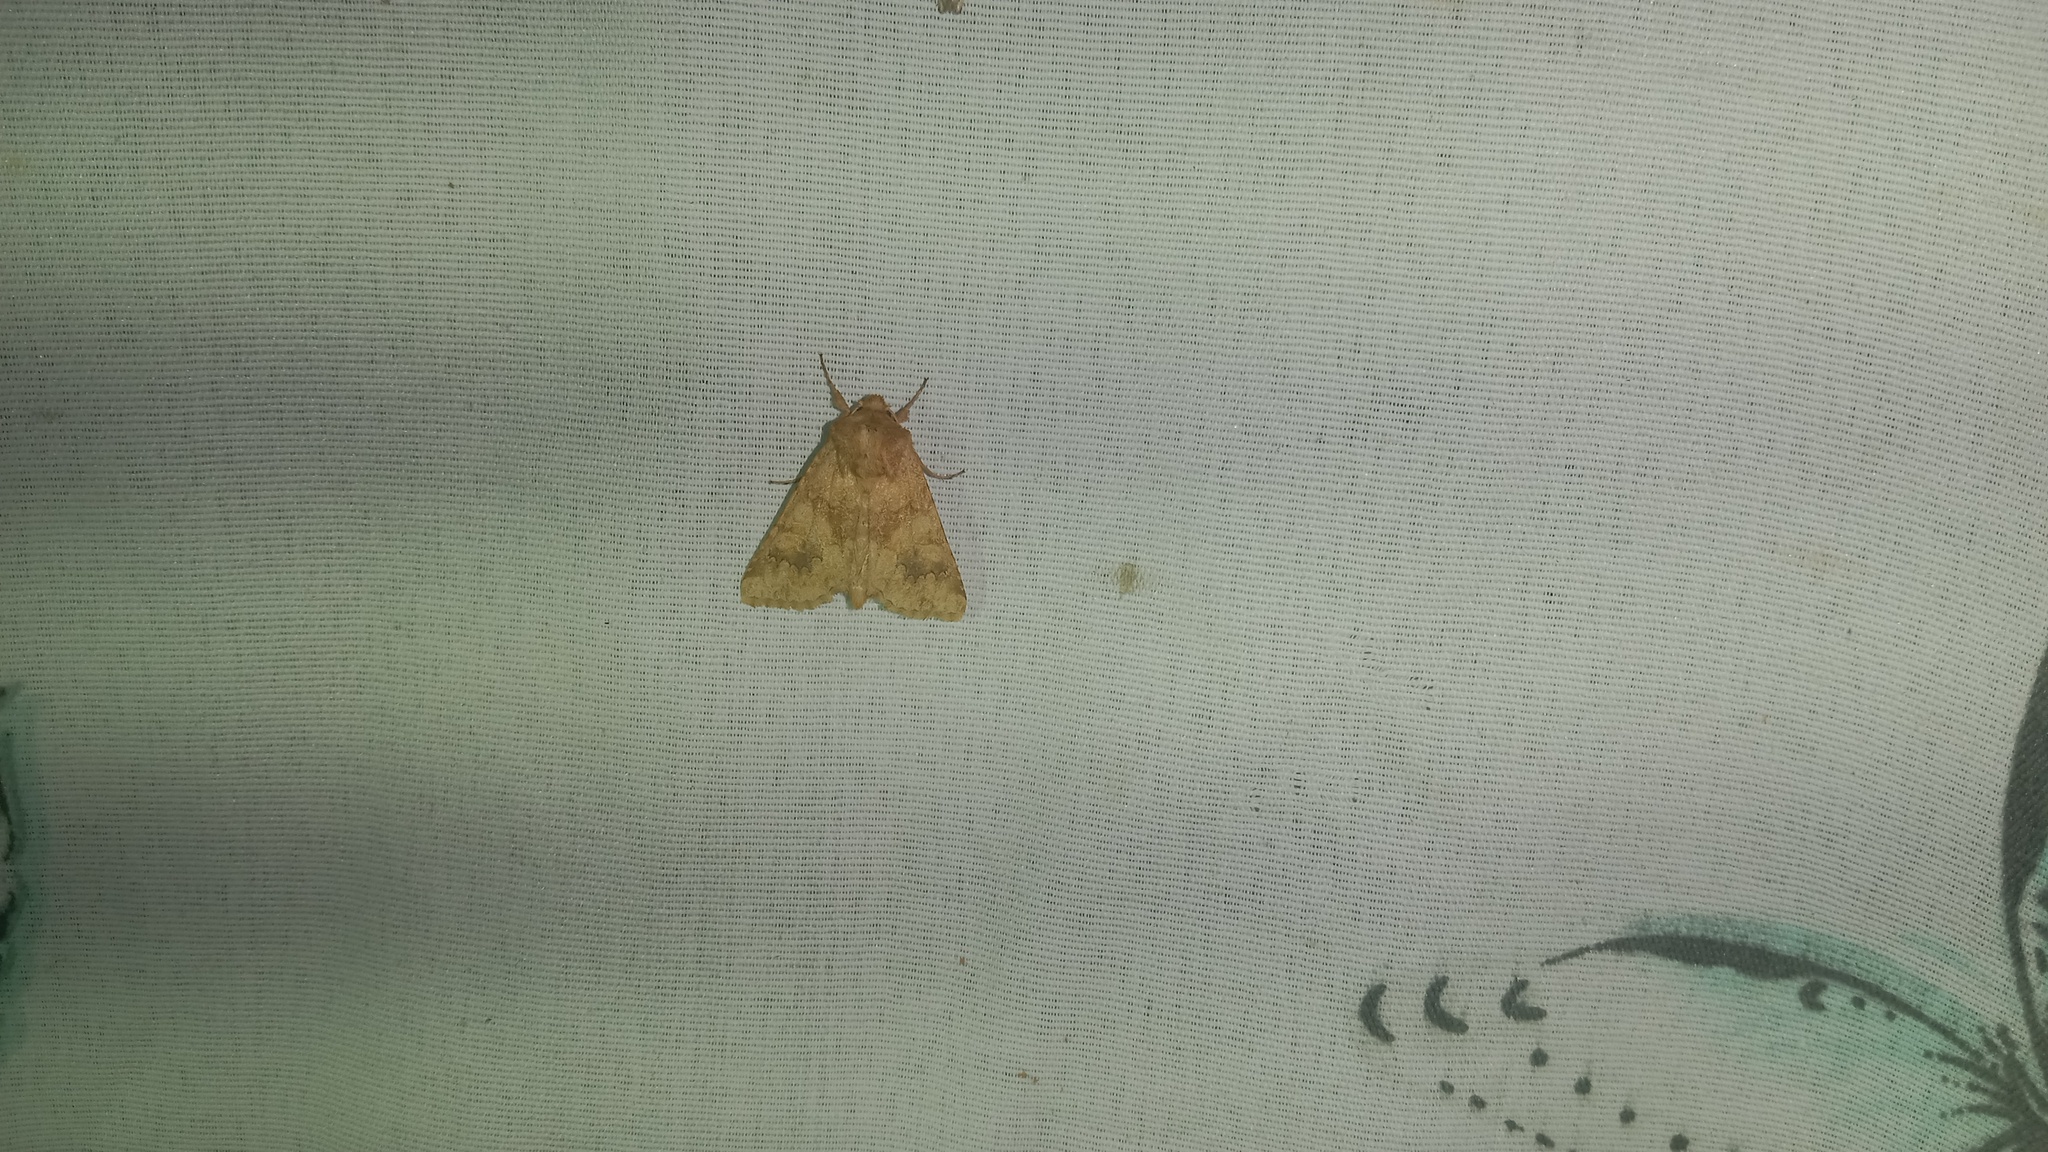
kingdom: Animalia
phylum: Arthropoda
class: Insecta
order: Lepidoptera
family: Noctuidae
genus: Conisania
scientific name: Conisania luteago
